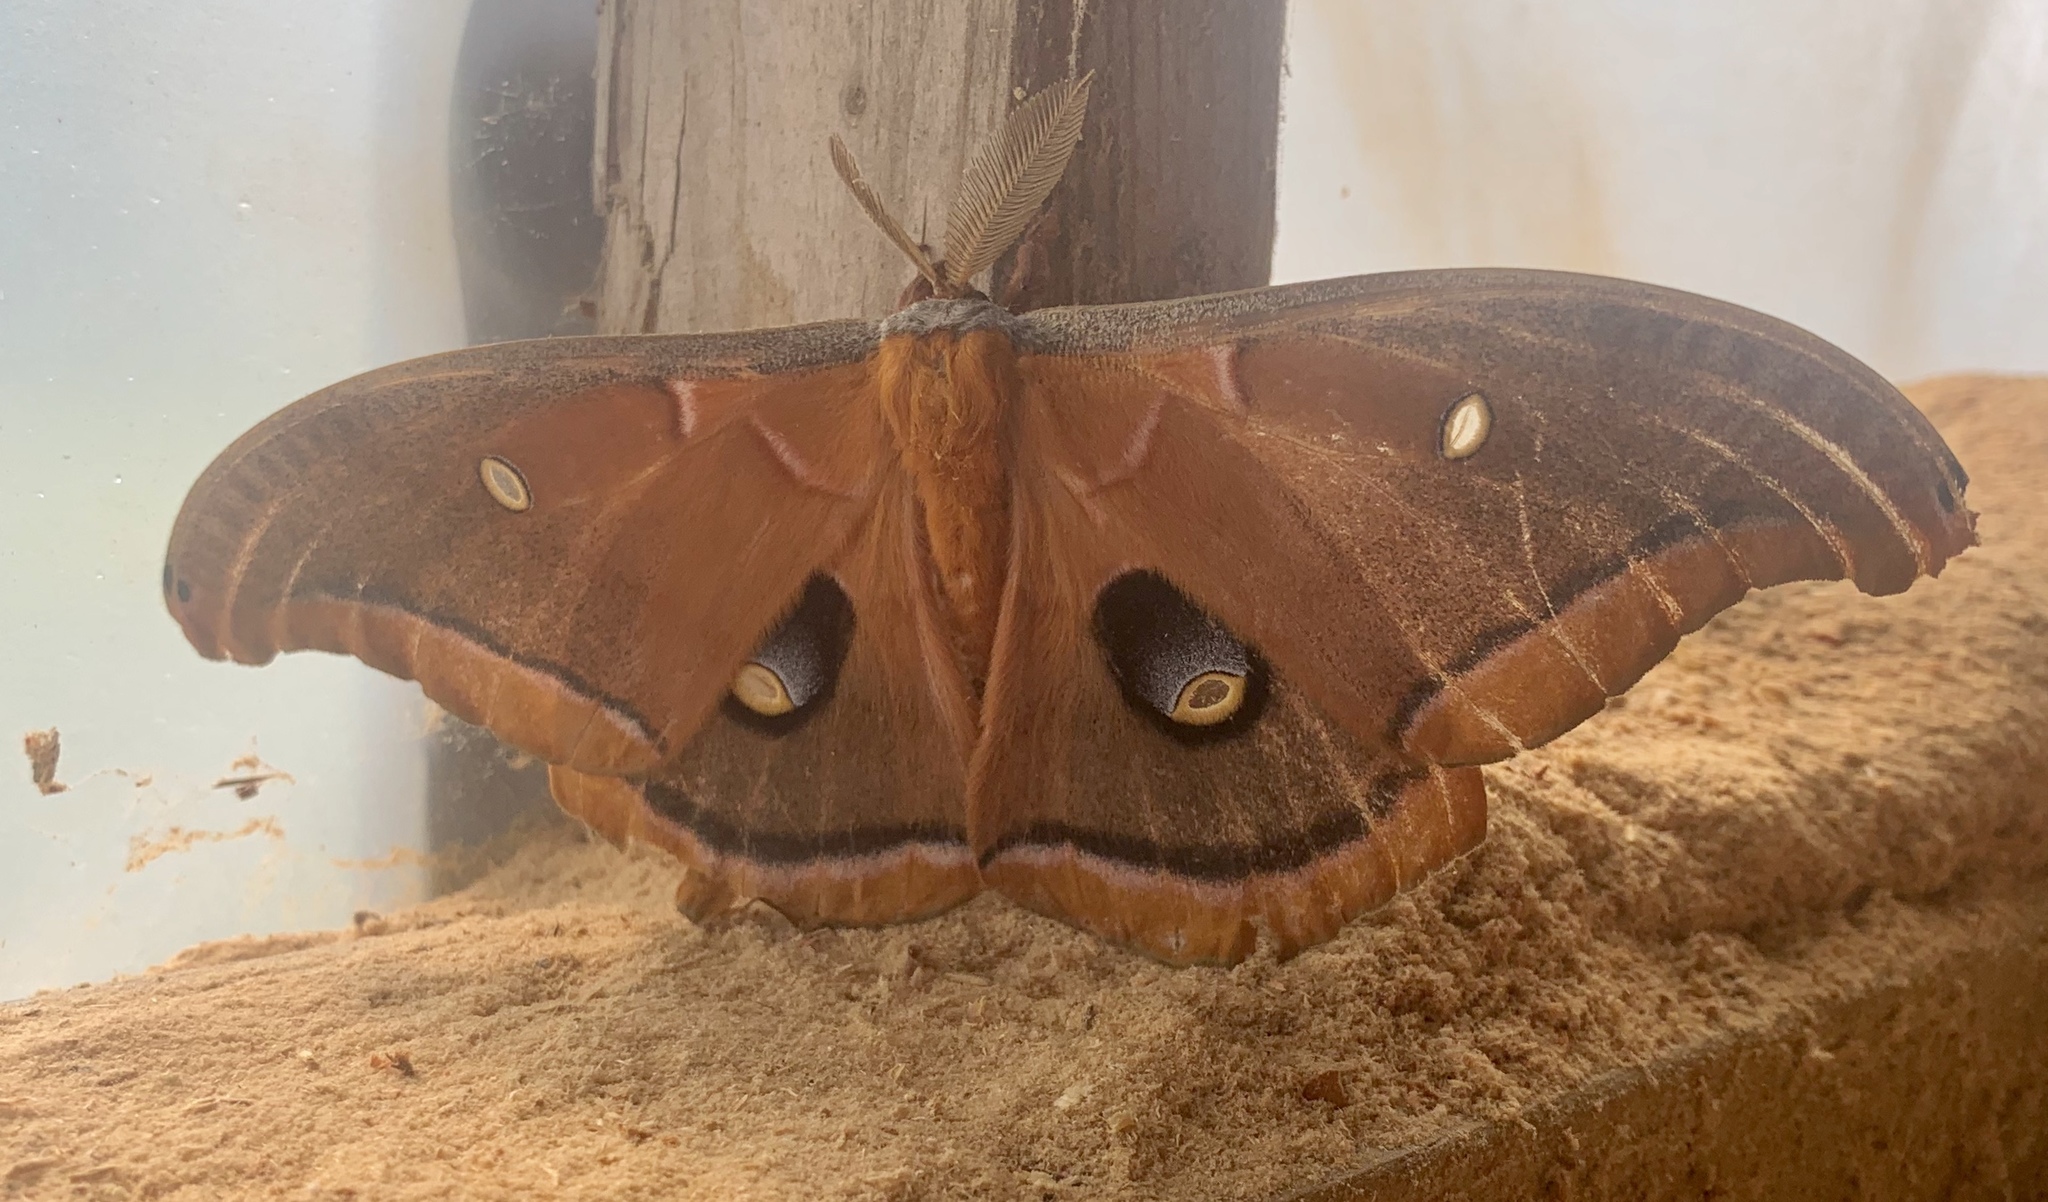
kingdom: Animalia
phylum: Arthropoda
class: Insecta
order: Lepidoptera
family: Saturniidae
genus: Antheraea
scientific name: Antheraea polyphemus
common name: Polyphemus moth
